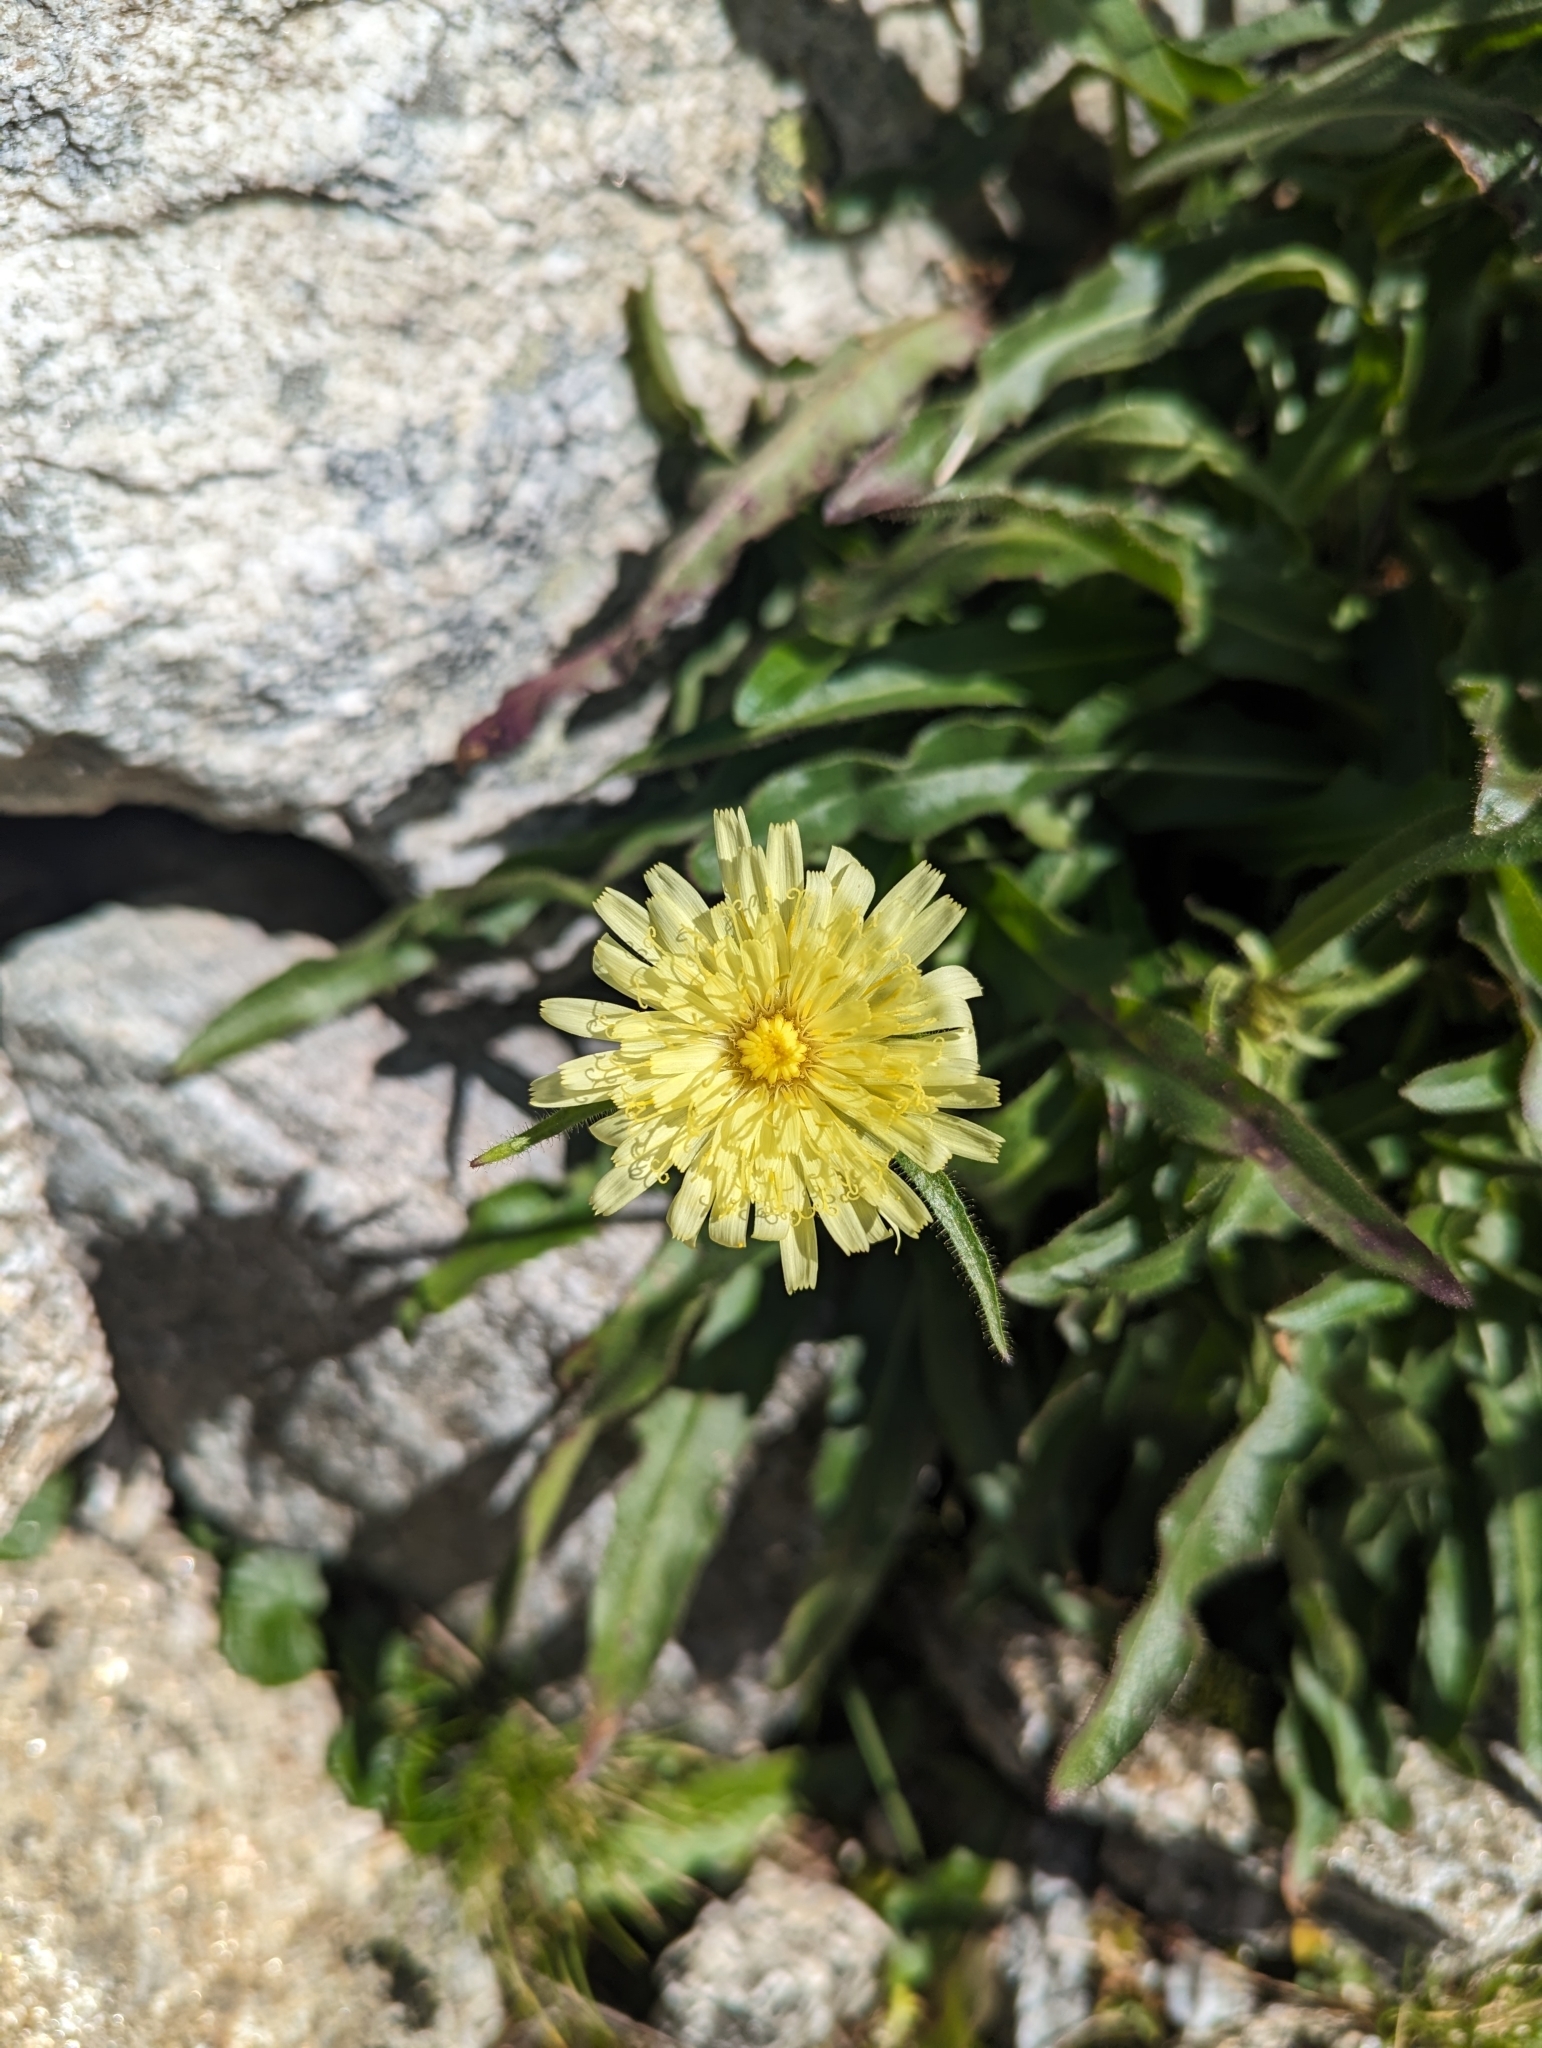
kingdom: Plantae
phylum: Tracheophyta
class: Magnoliopsida
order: Asterales
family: Asteraceae
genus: Schlagintweitia
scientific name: Schlagintweitia intybacea
